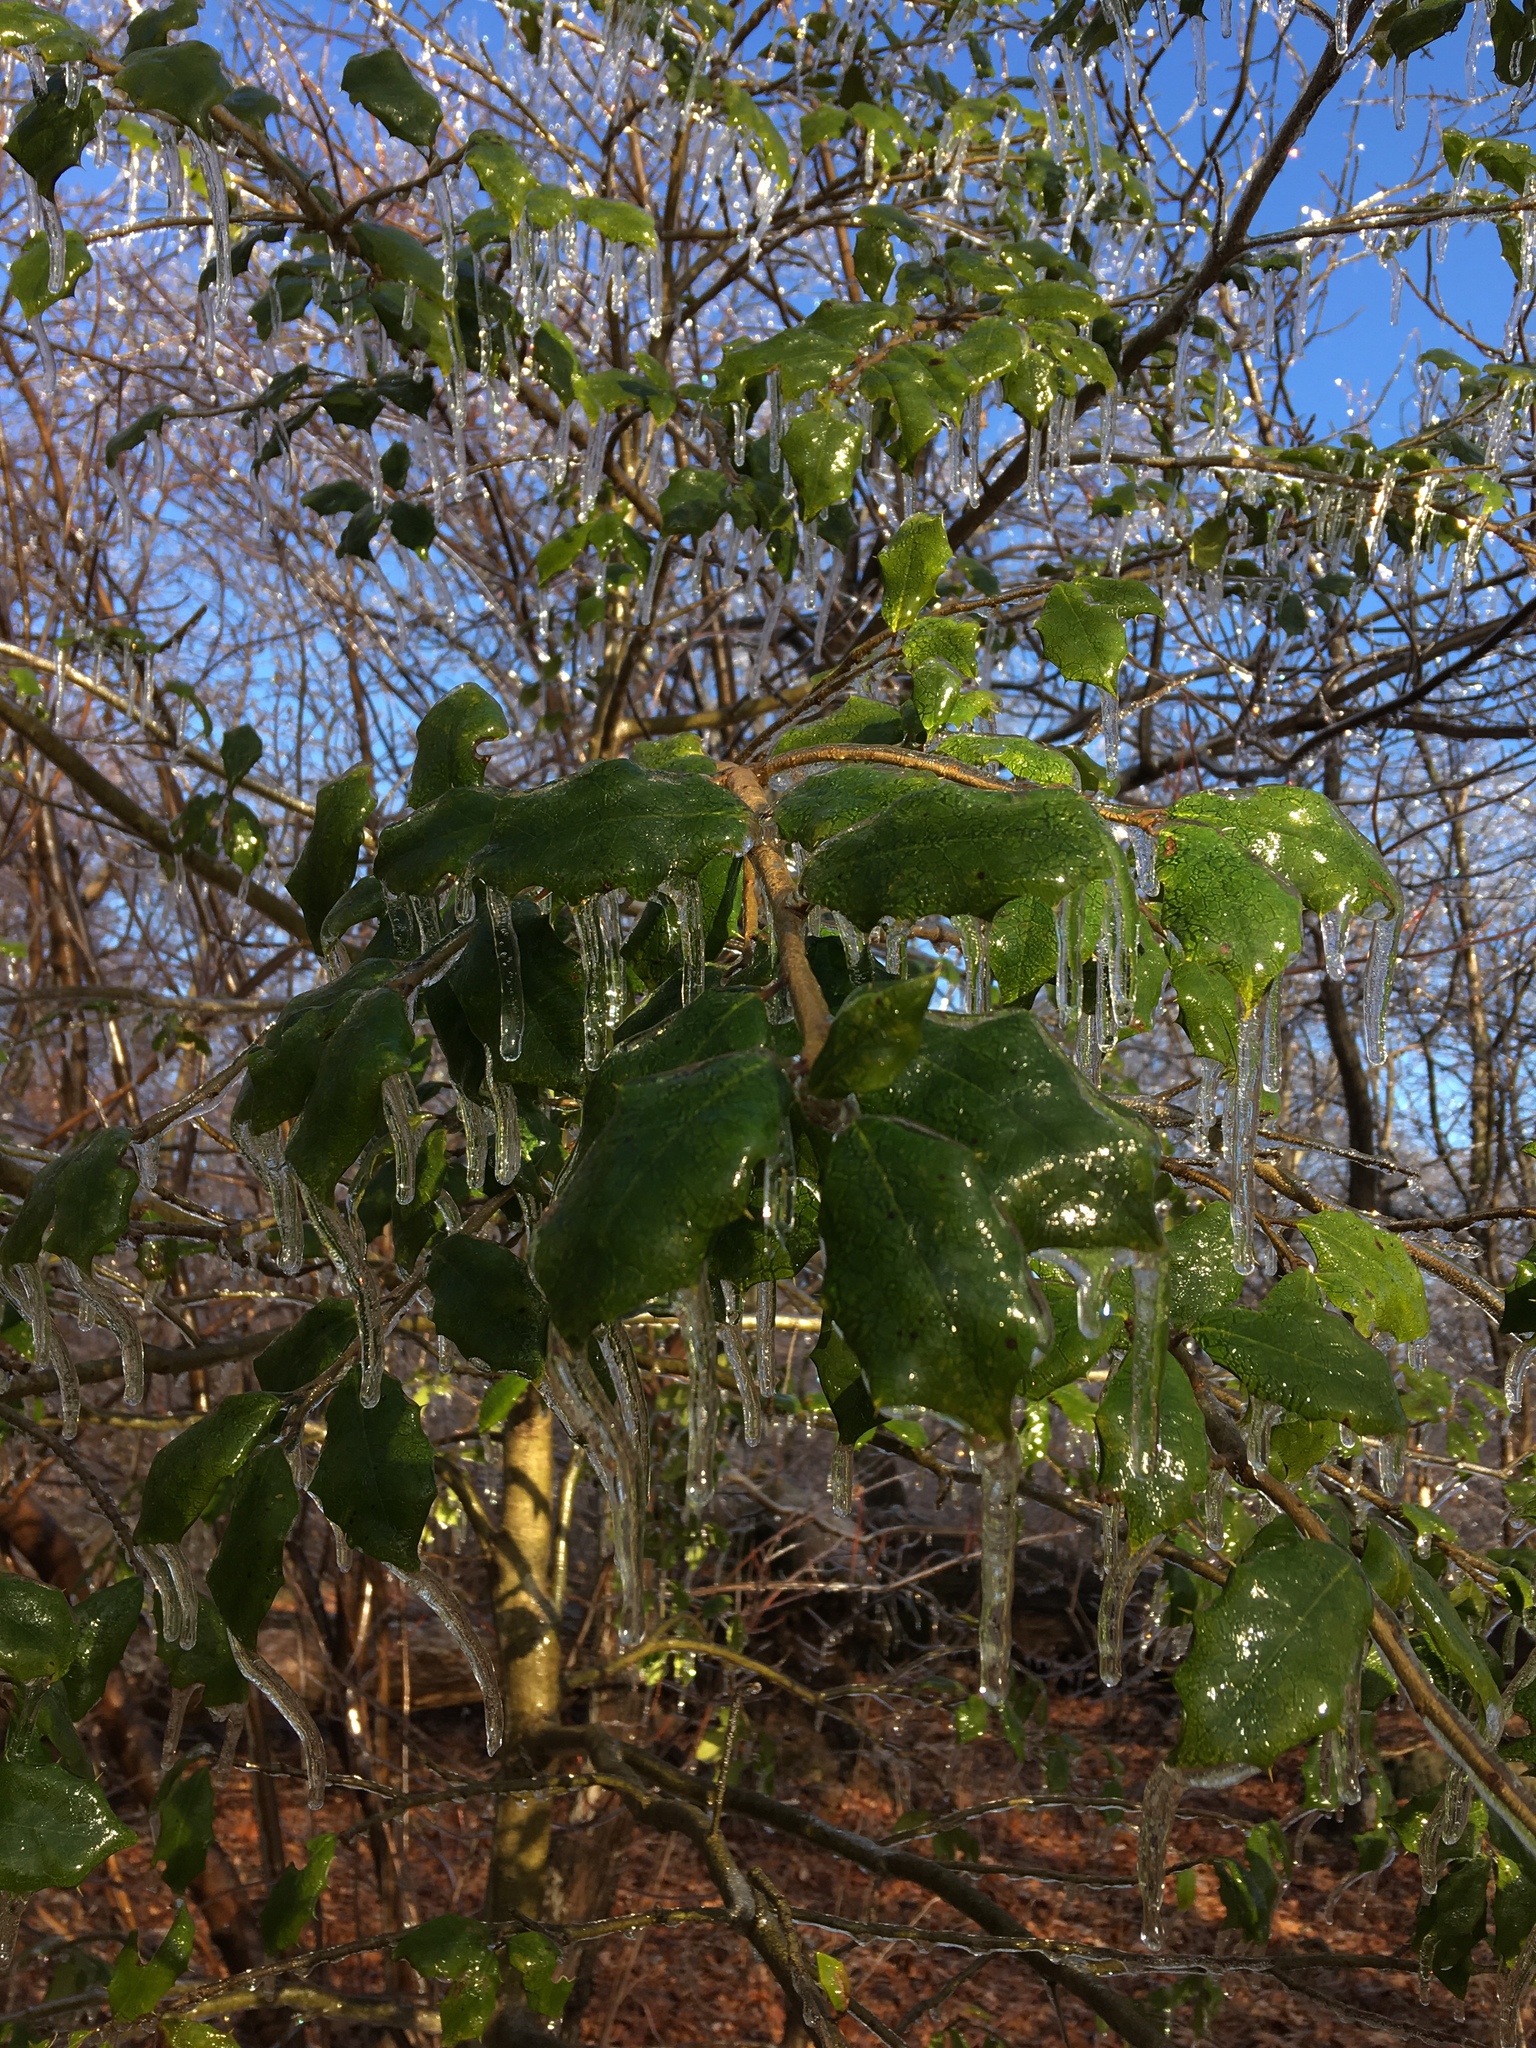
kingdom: Plantae
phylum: Tracheophyta
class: Magnoliopsida
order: Aquifoliales
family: Aquifoliaceae
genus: Ilex
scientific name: Ilex opaca
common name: American holly
